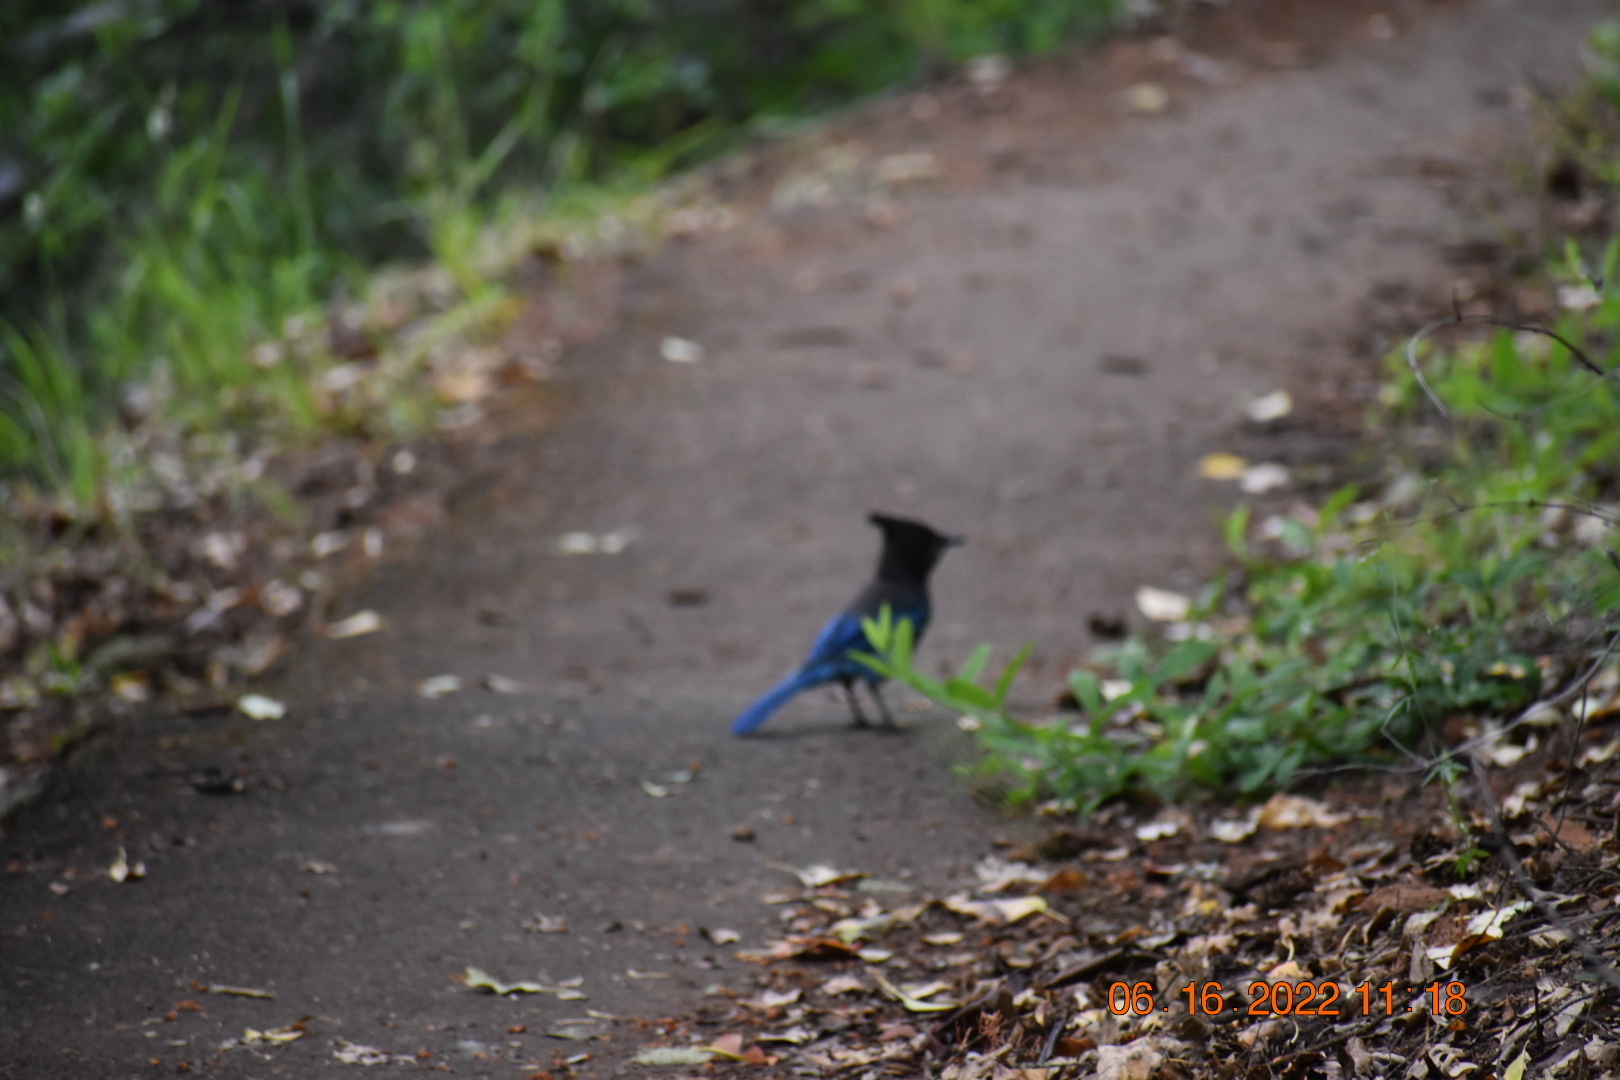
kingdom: Animalia
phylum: Chordata
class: Aves
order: Passeriformes
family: Corvidae
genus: Cyanocitta
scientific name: Cyanocitta stelleri
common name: Steller's jay
